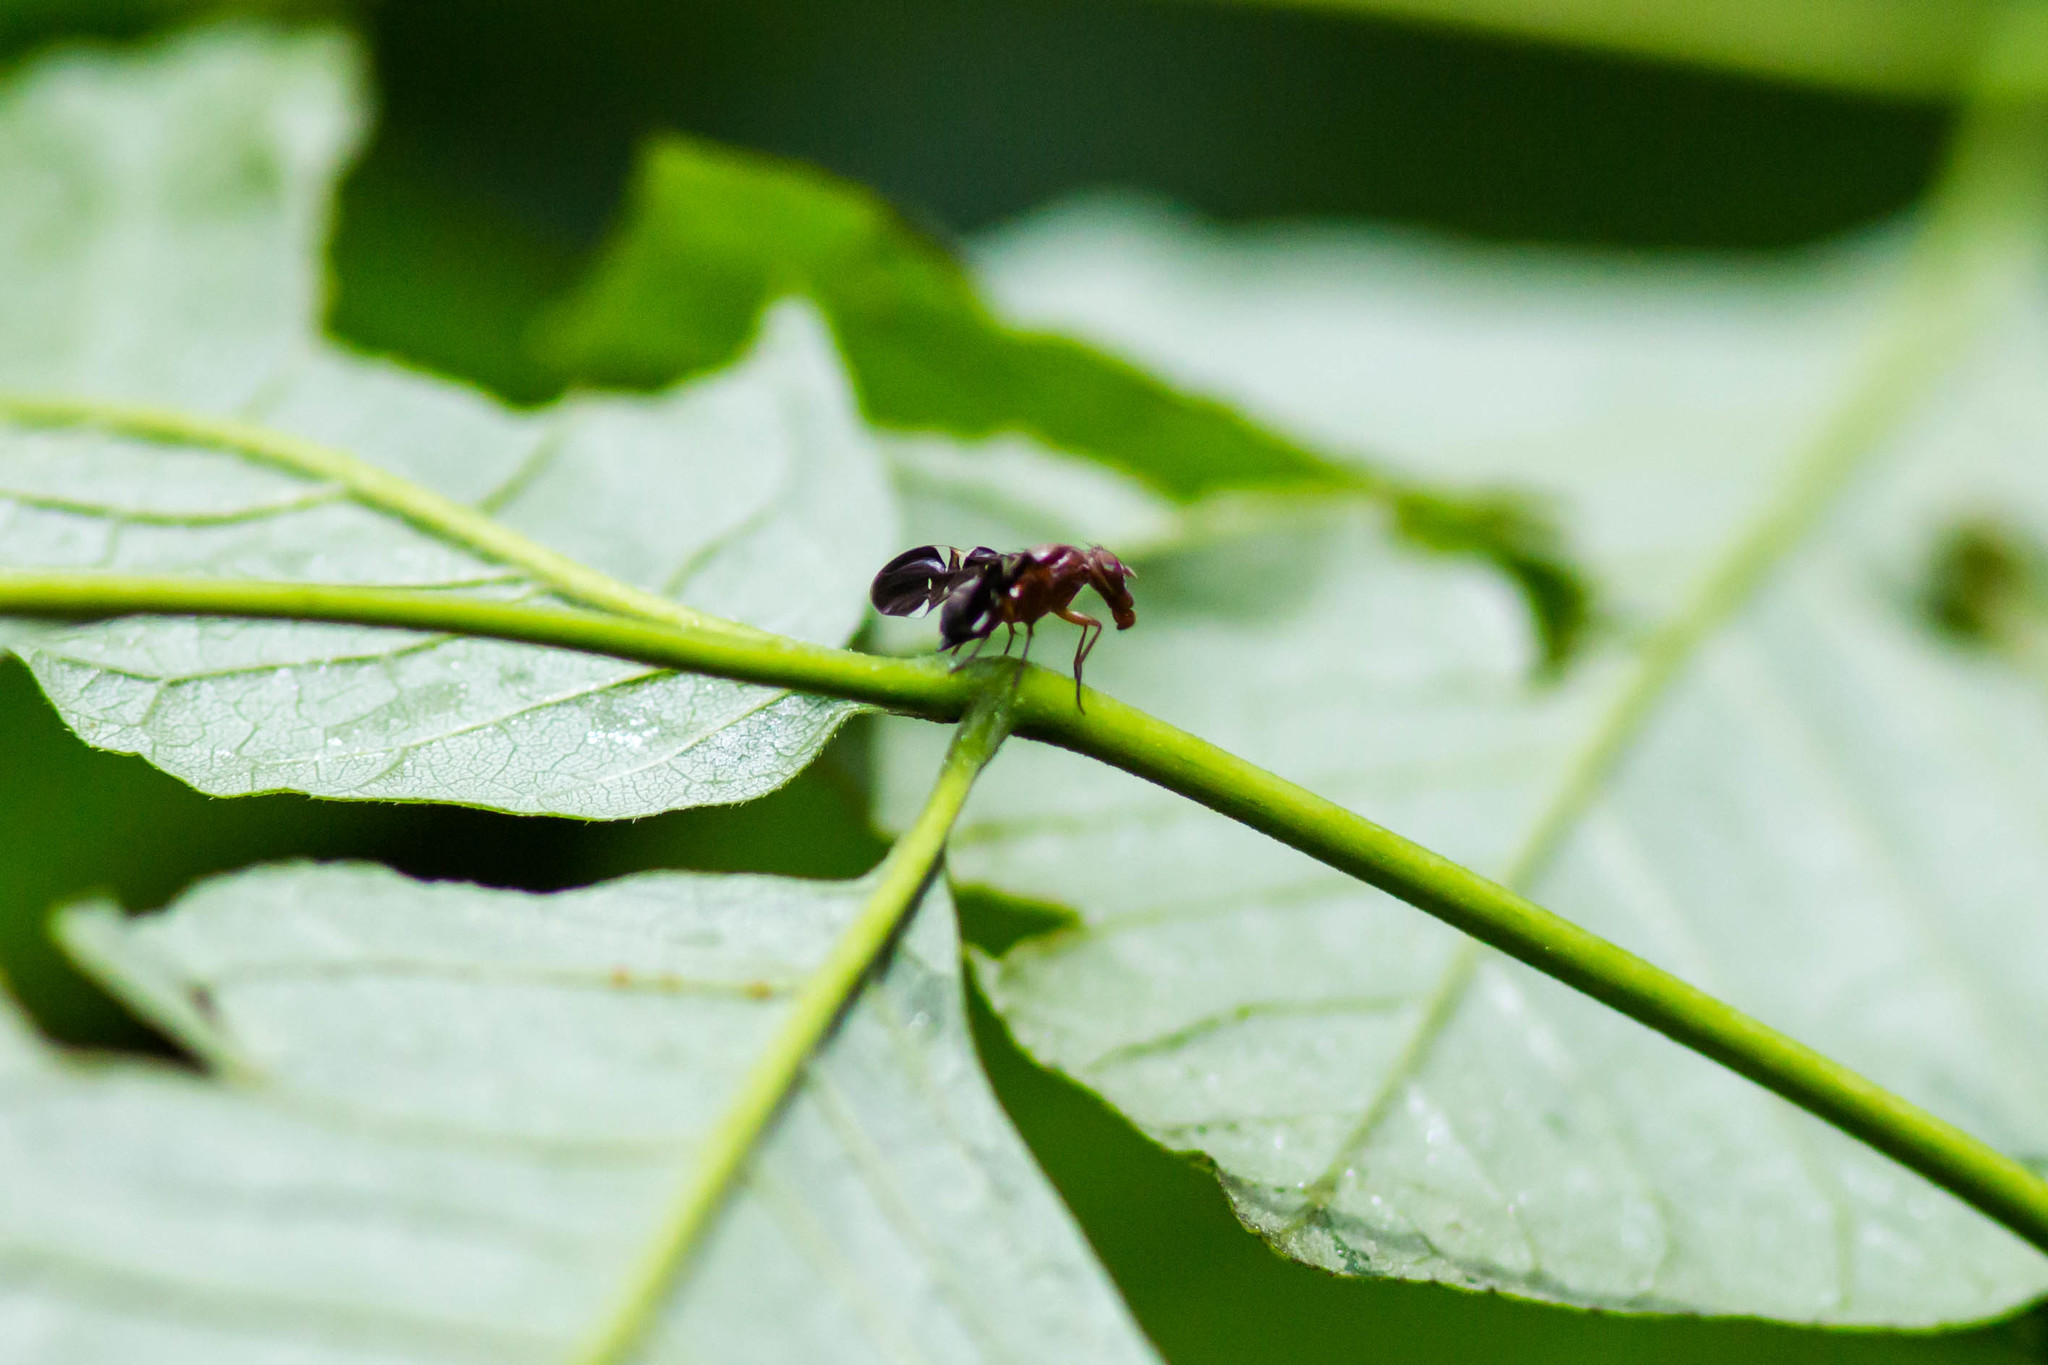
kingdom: Animalia
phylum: Arthropoda
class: Insecta
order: Diptera
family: Ulidiidae
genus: Delphinia
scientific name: Delphinia picta
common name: Common picture-winged fly
